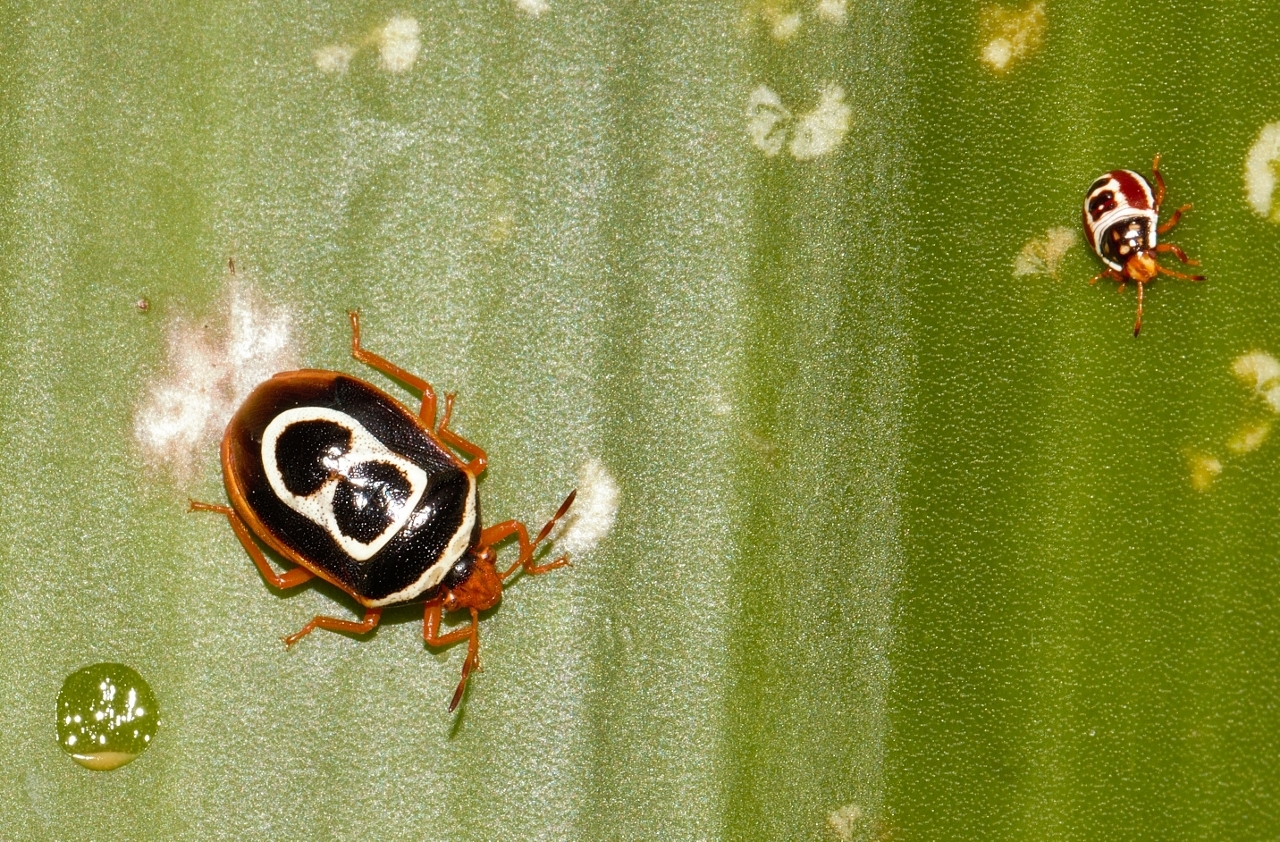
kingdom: Animalia
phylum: Arthropoda
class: Insecta
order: Hemiptera
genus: Flaminia
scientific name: Flaminia
